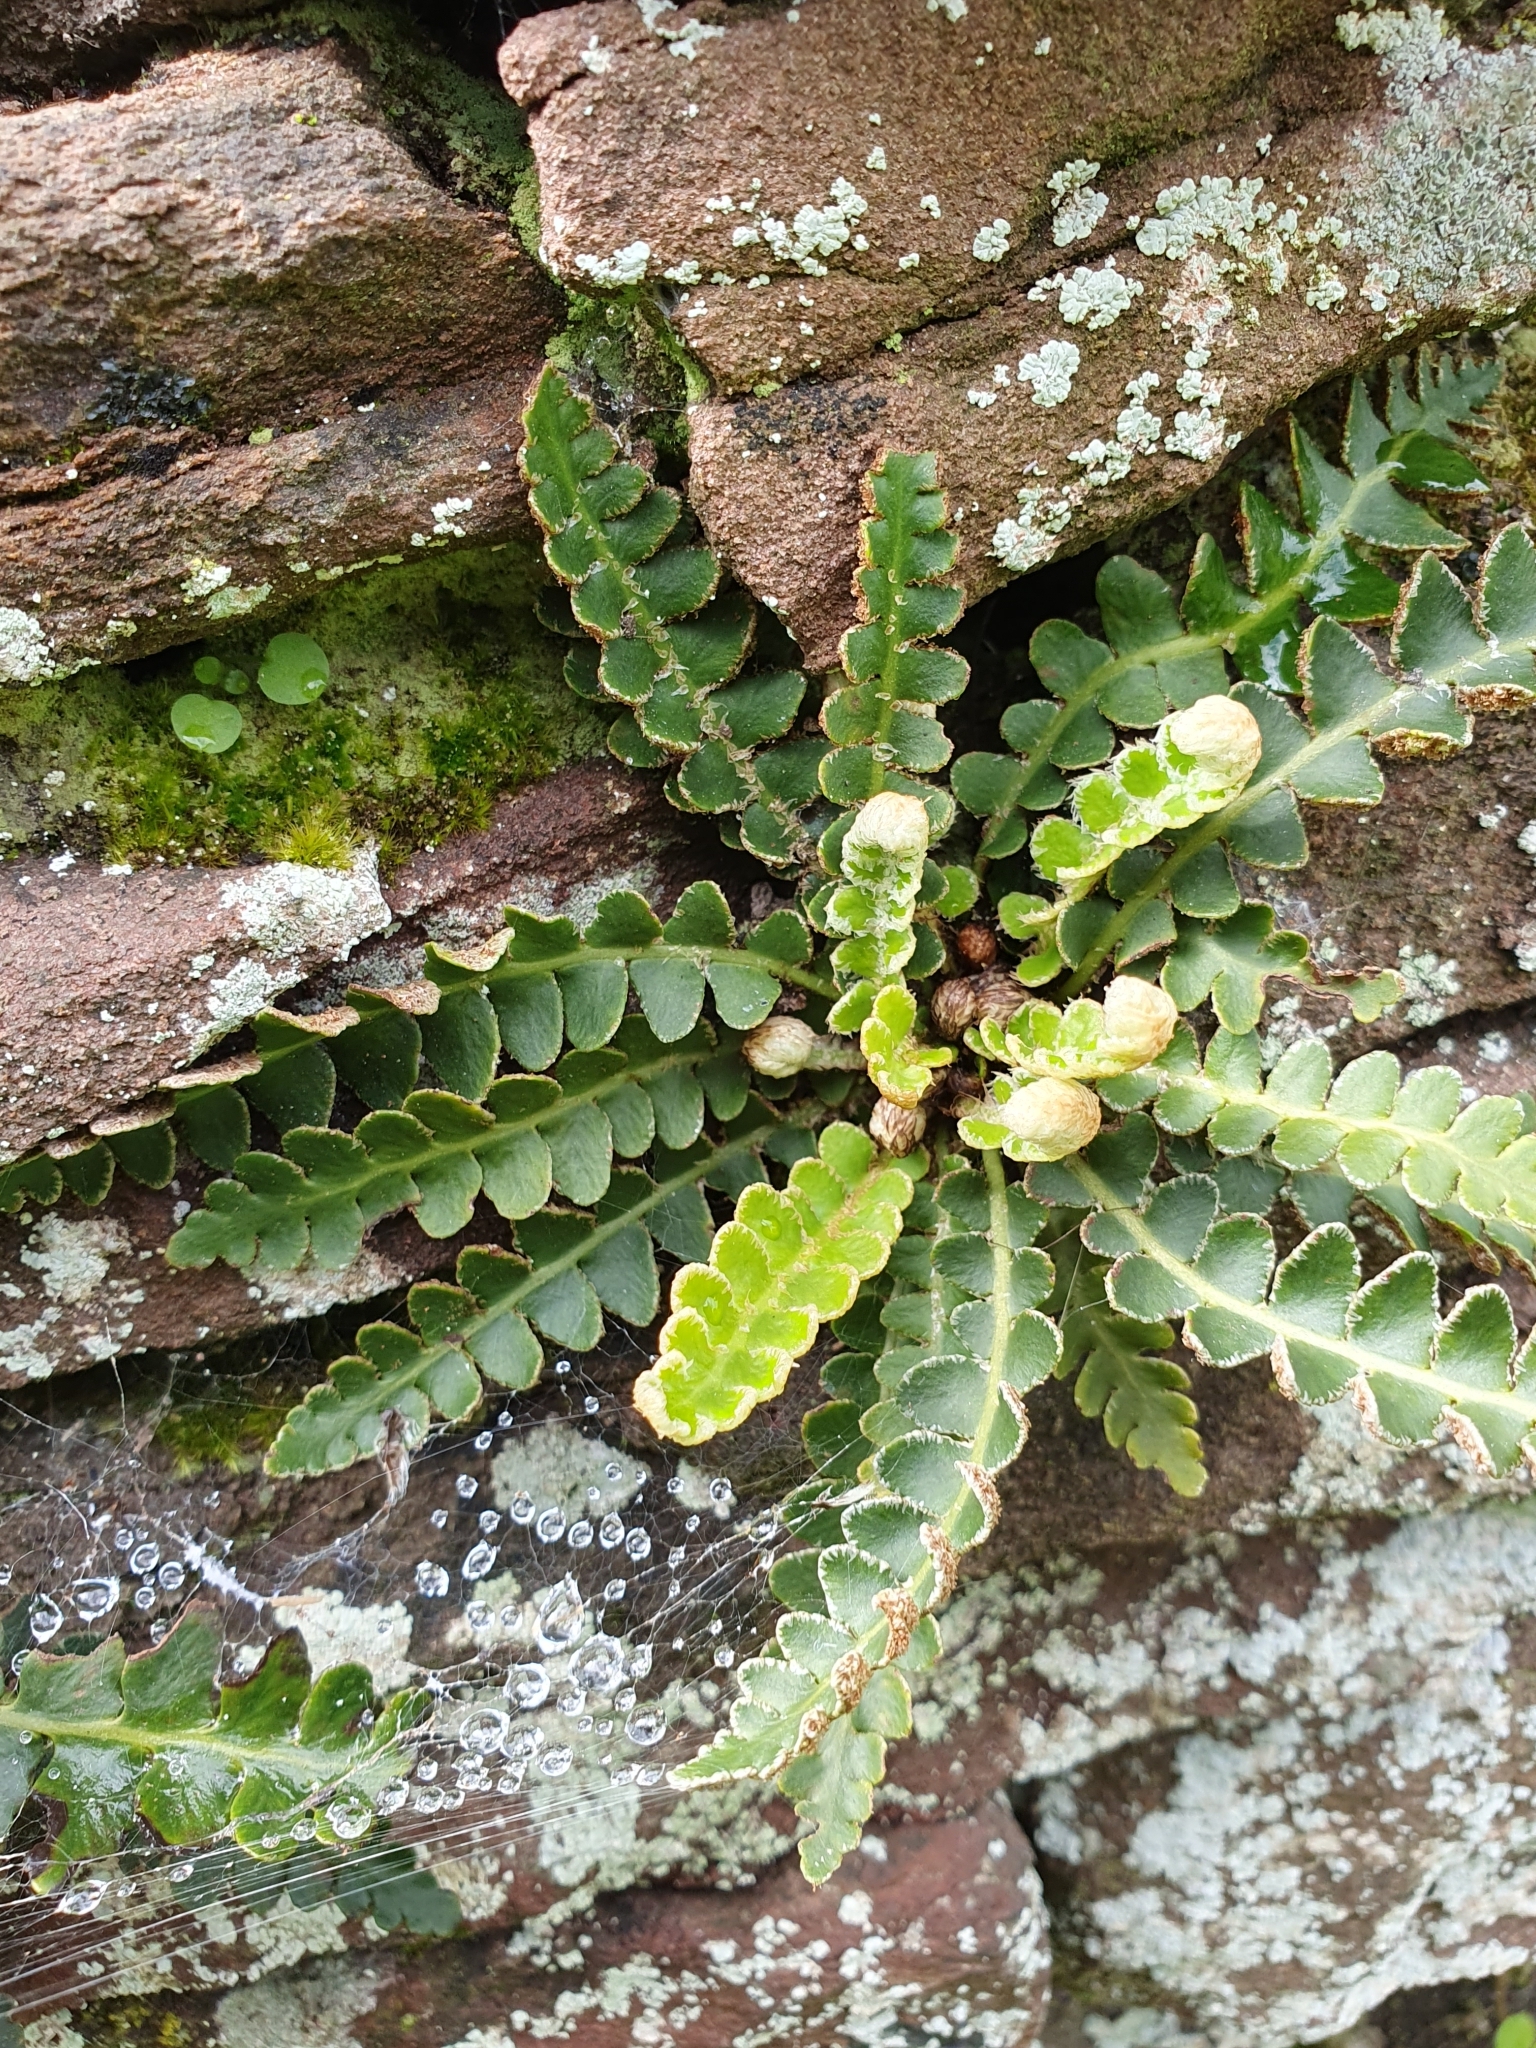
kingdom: Plantae
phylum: Tracheophyta
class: Polypodiopsida
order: Polypodiales
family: Aspleniaceae
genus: Asplenium
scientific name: Asplenium ceterach
